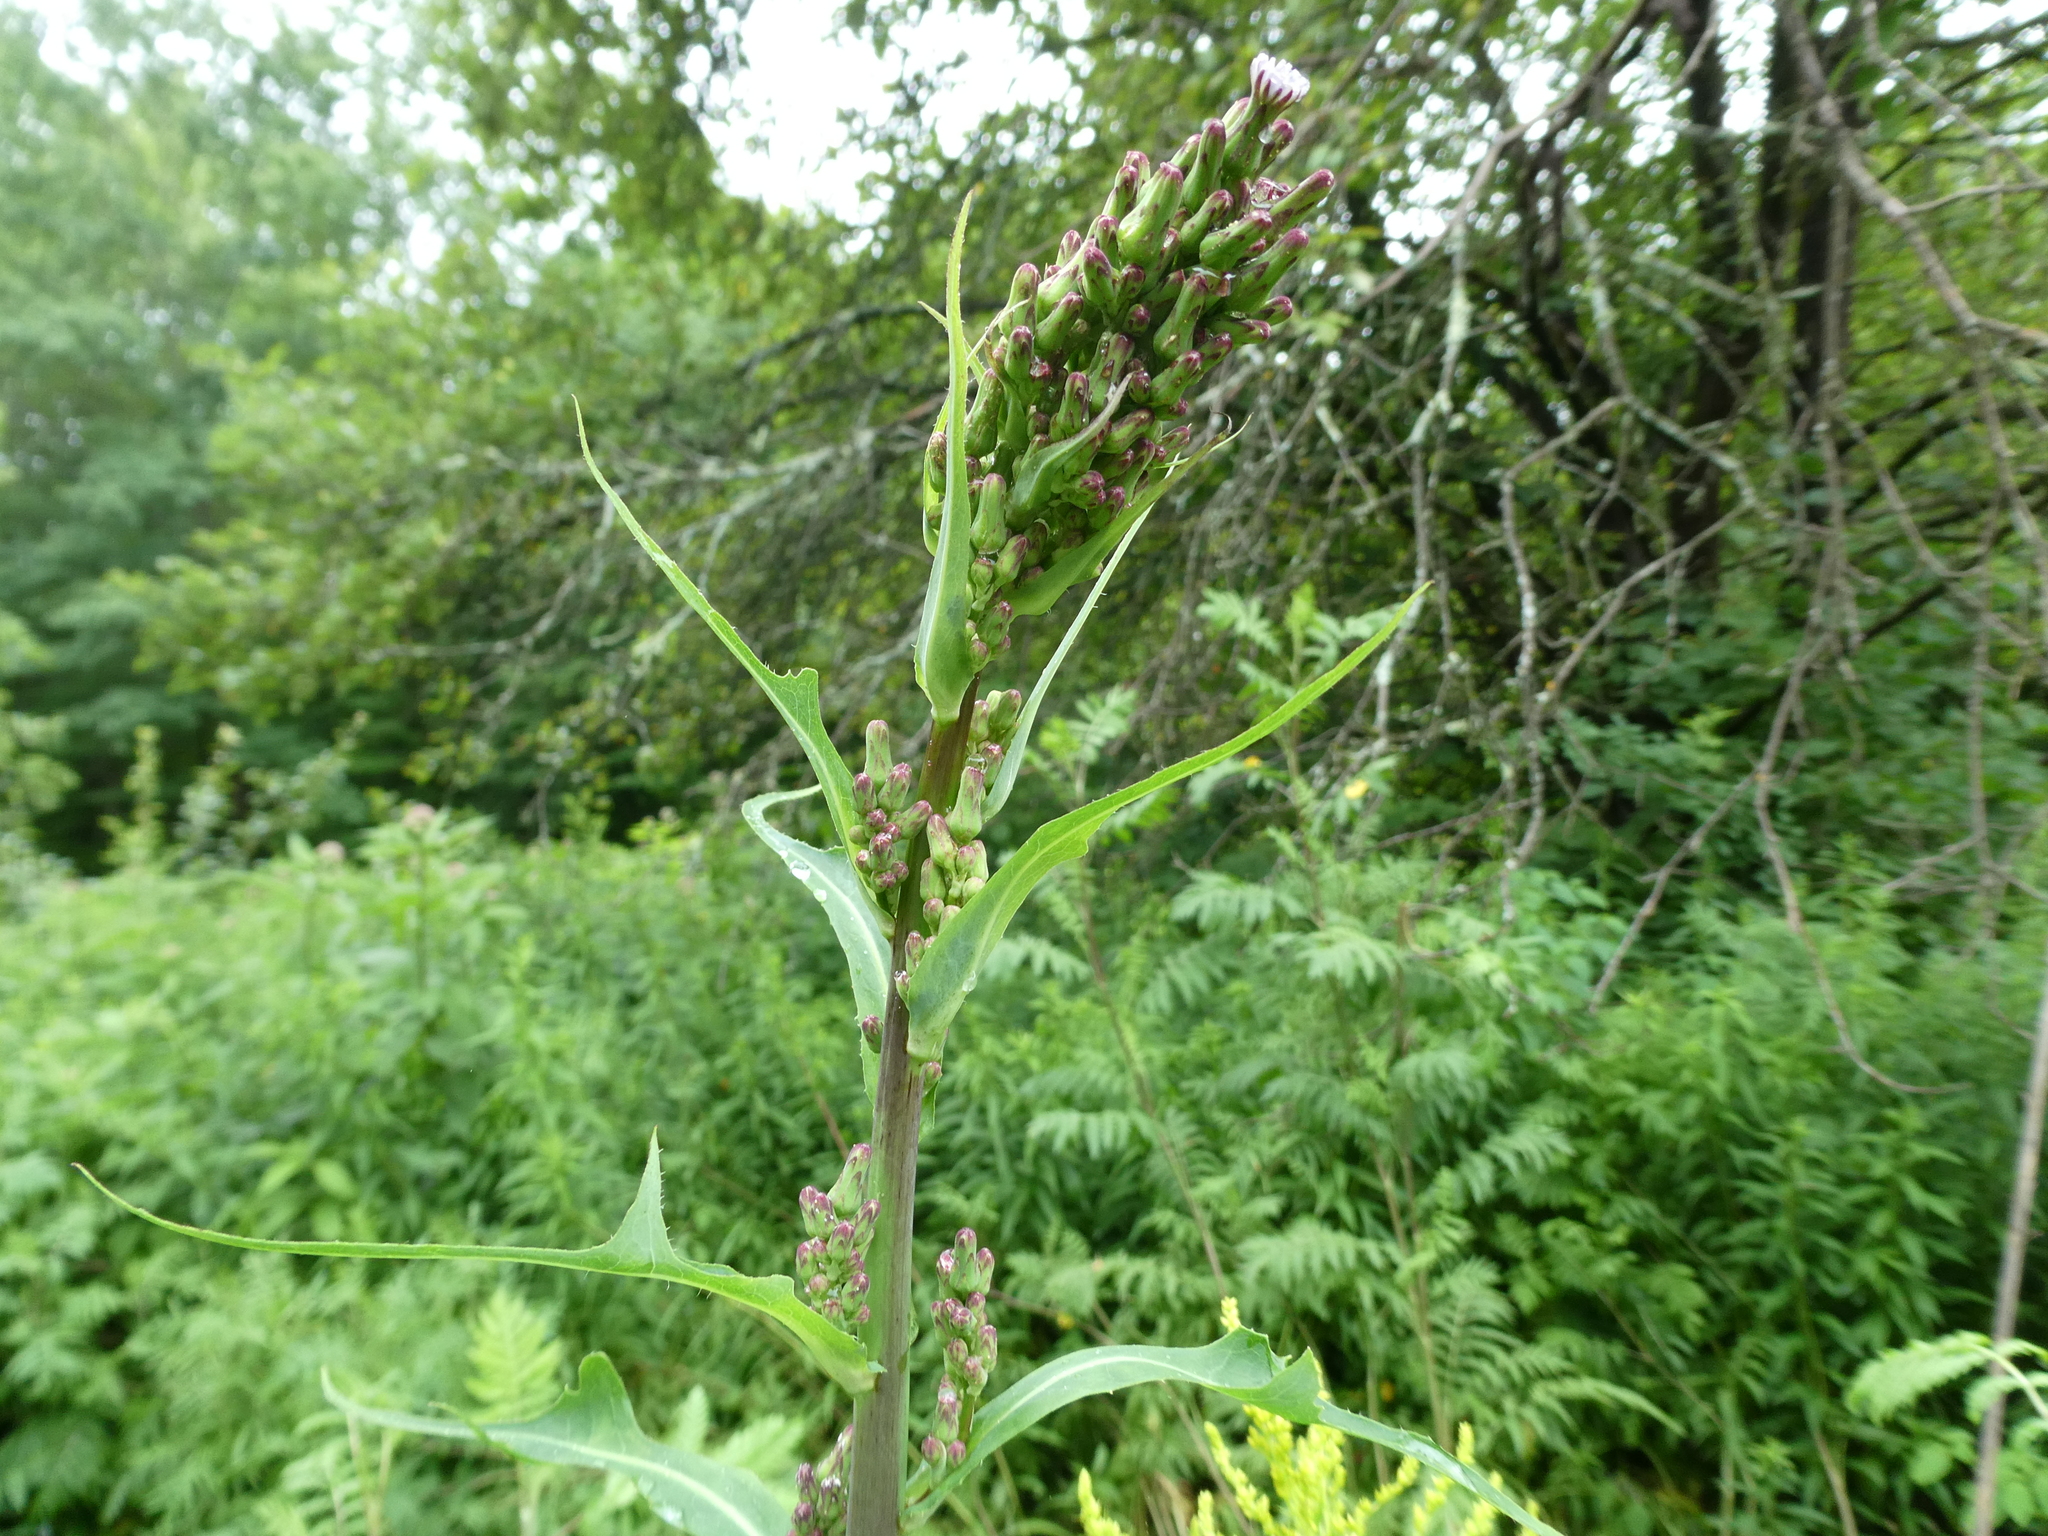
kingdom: Plantae
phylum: Tracheophyta
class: Magnoliopsida
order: Asterales
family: Asteraceae
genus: Lactuca
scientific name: Lactuca biennis
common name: Blue wood lettuce
